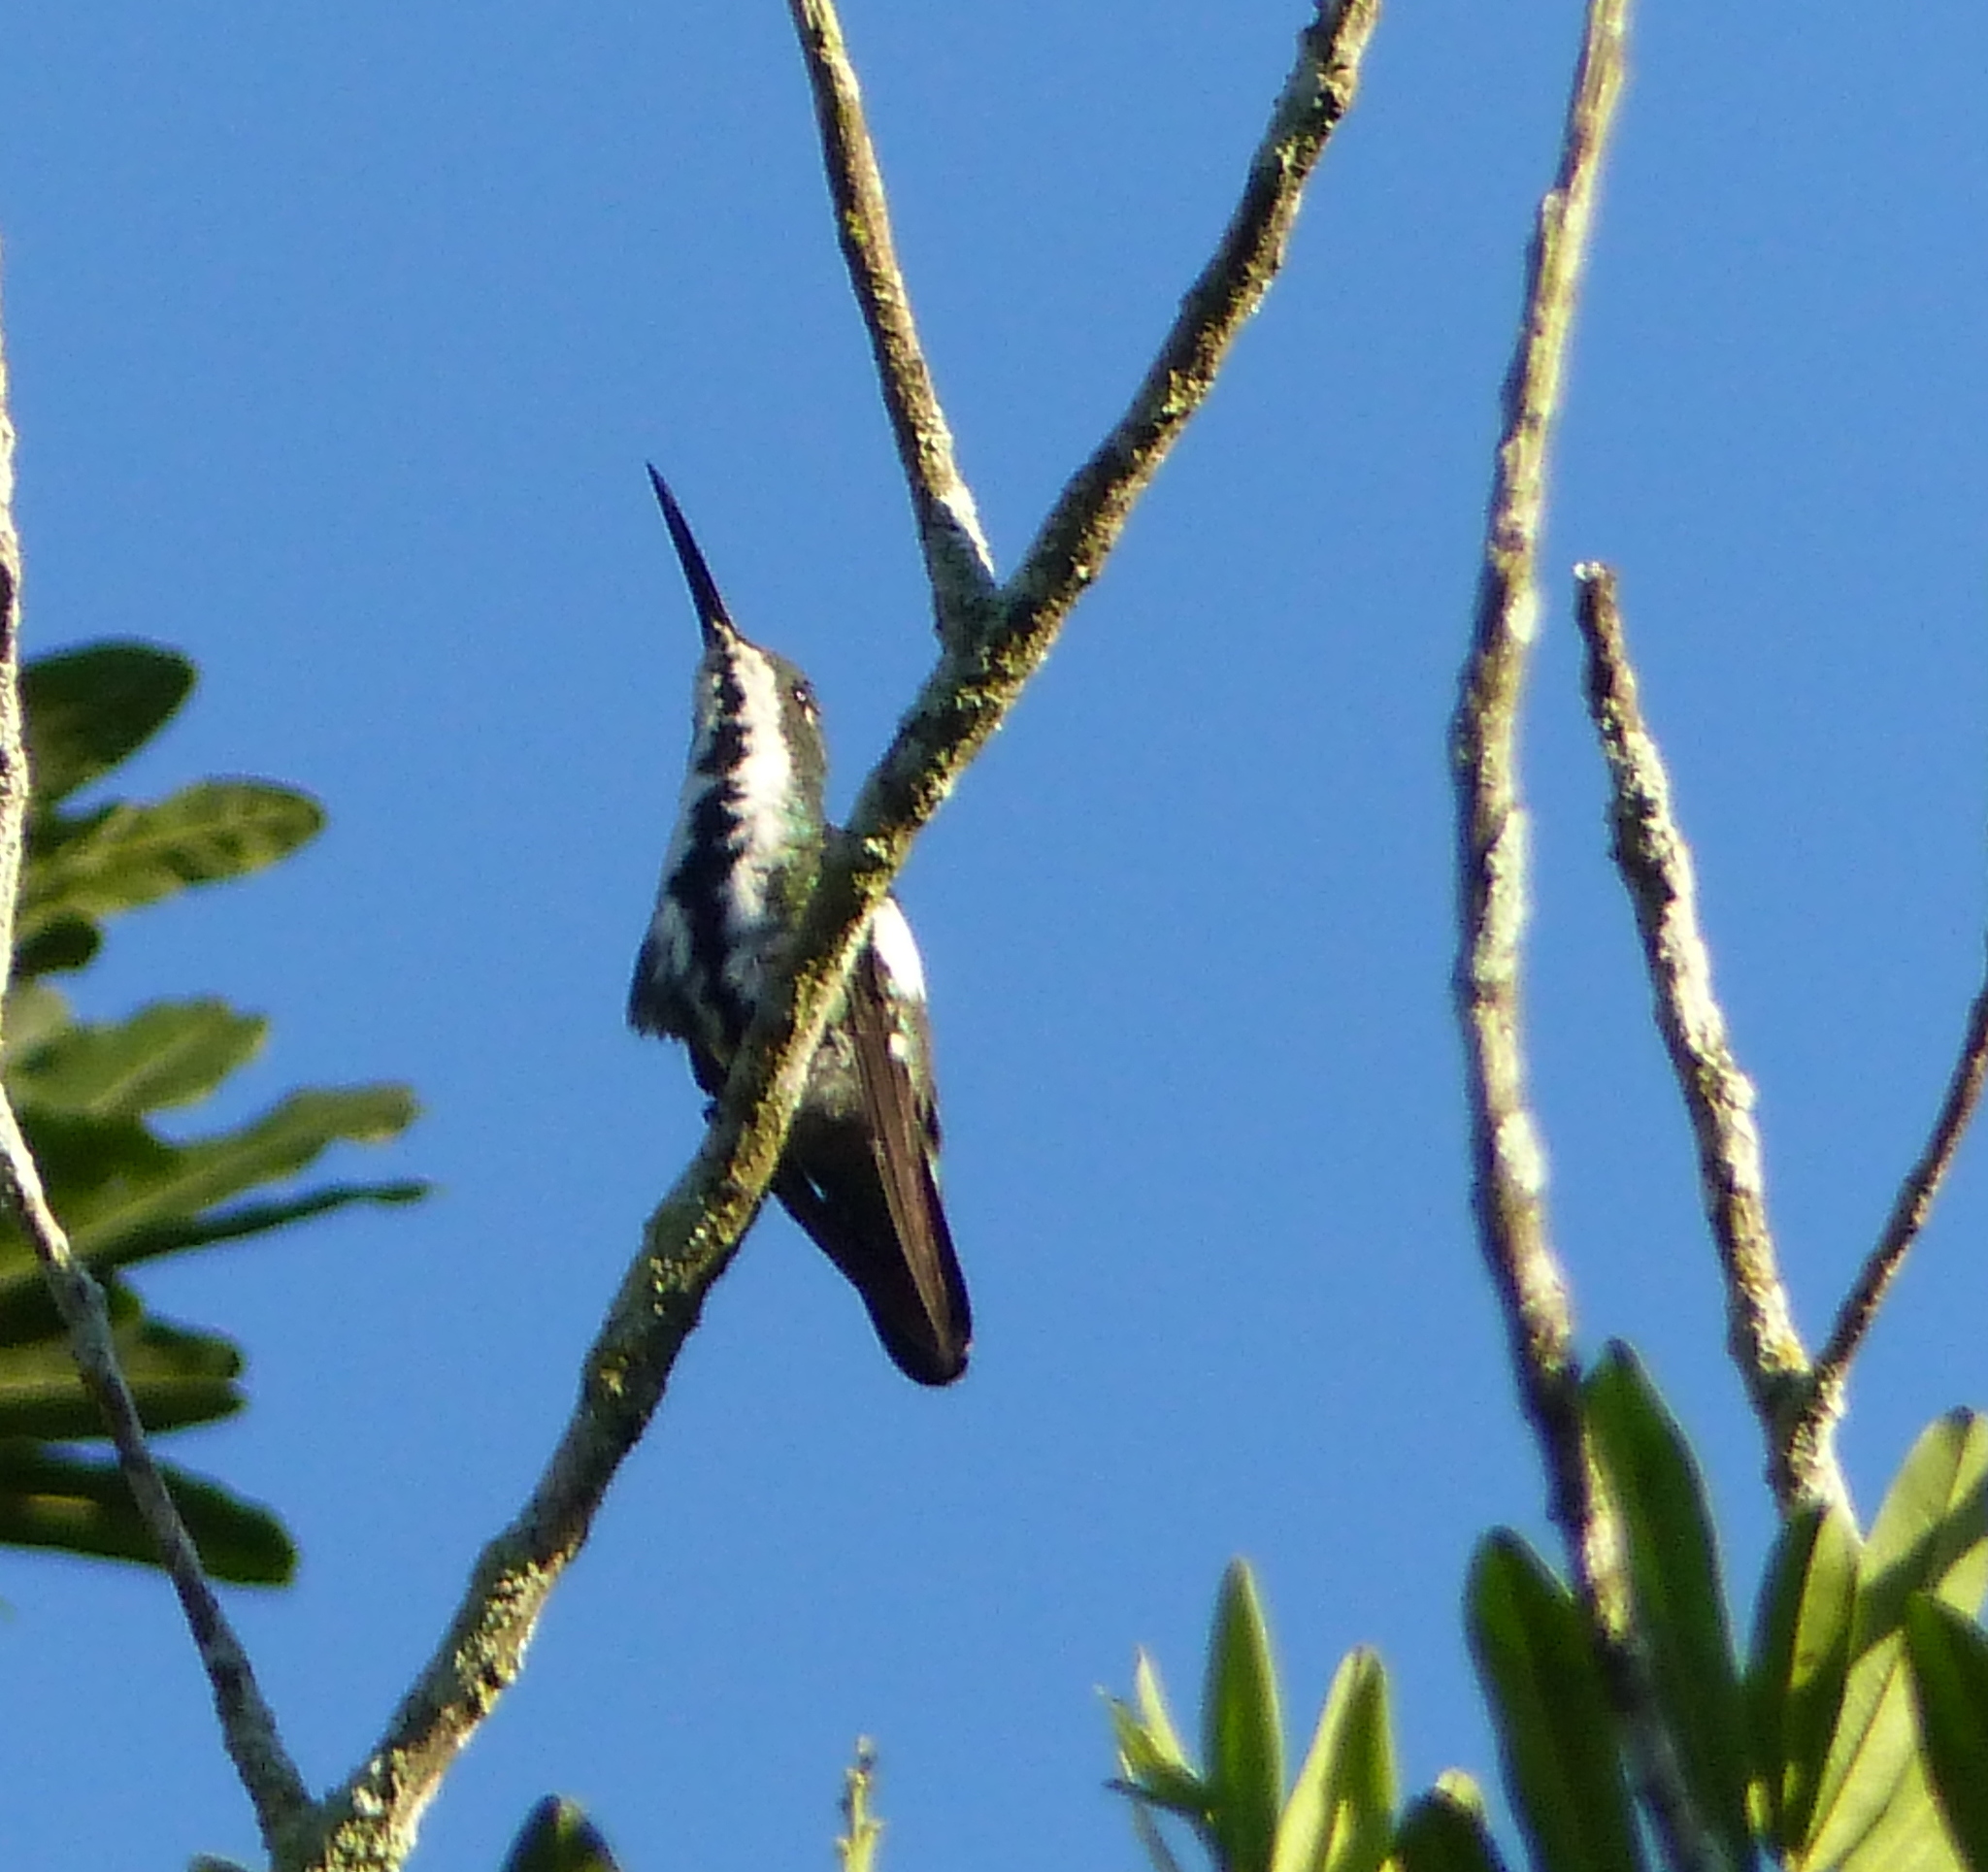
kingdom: Animalia
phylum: Chordata
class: Aves
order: Apodiformes
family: Trochilidae
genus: Anthracothorax
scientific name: Anthracothorax nigricollis
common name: Black-throated mango
